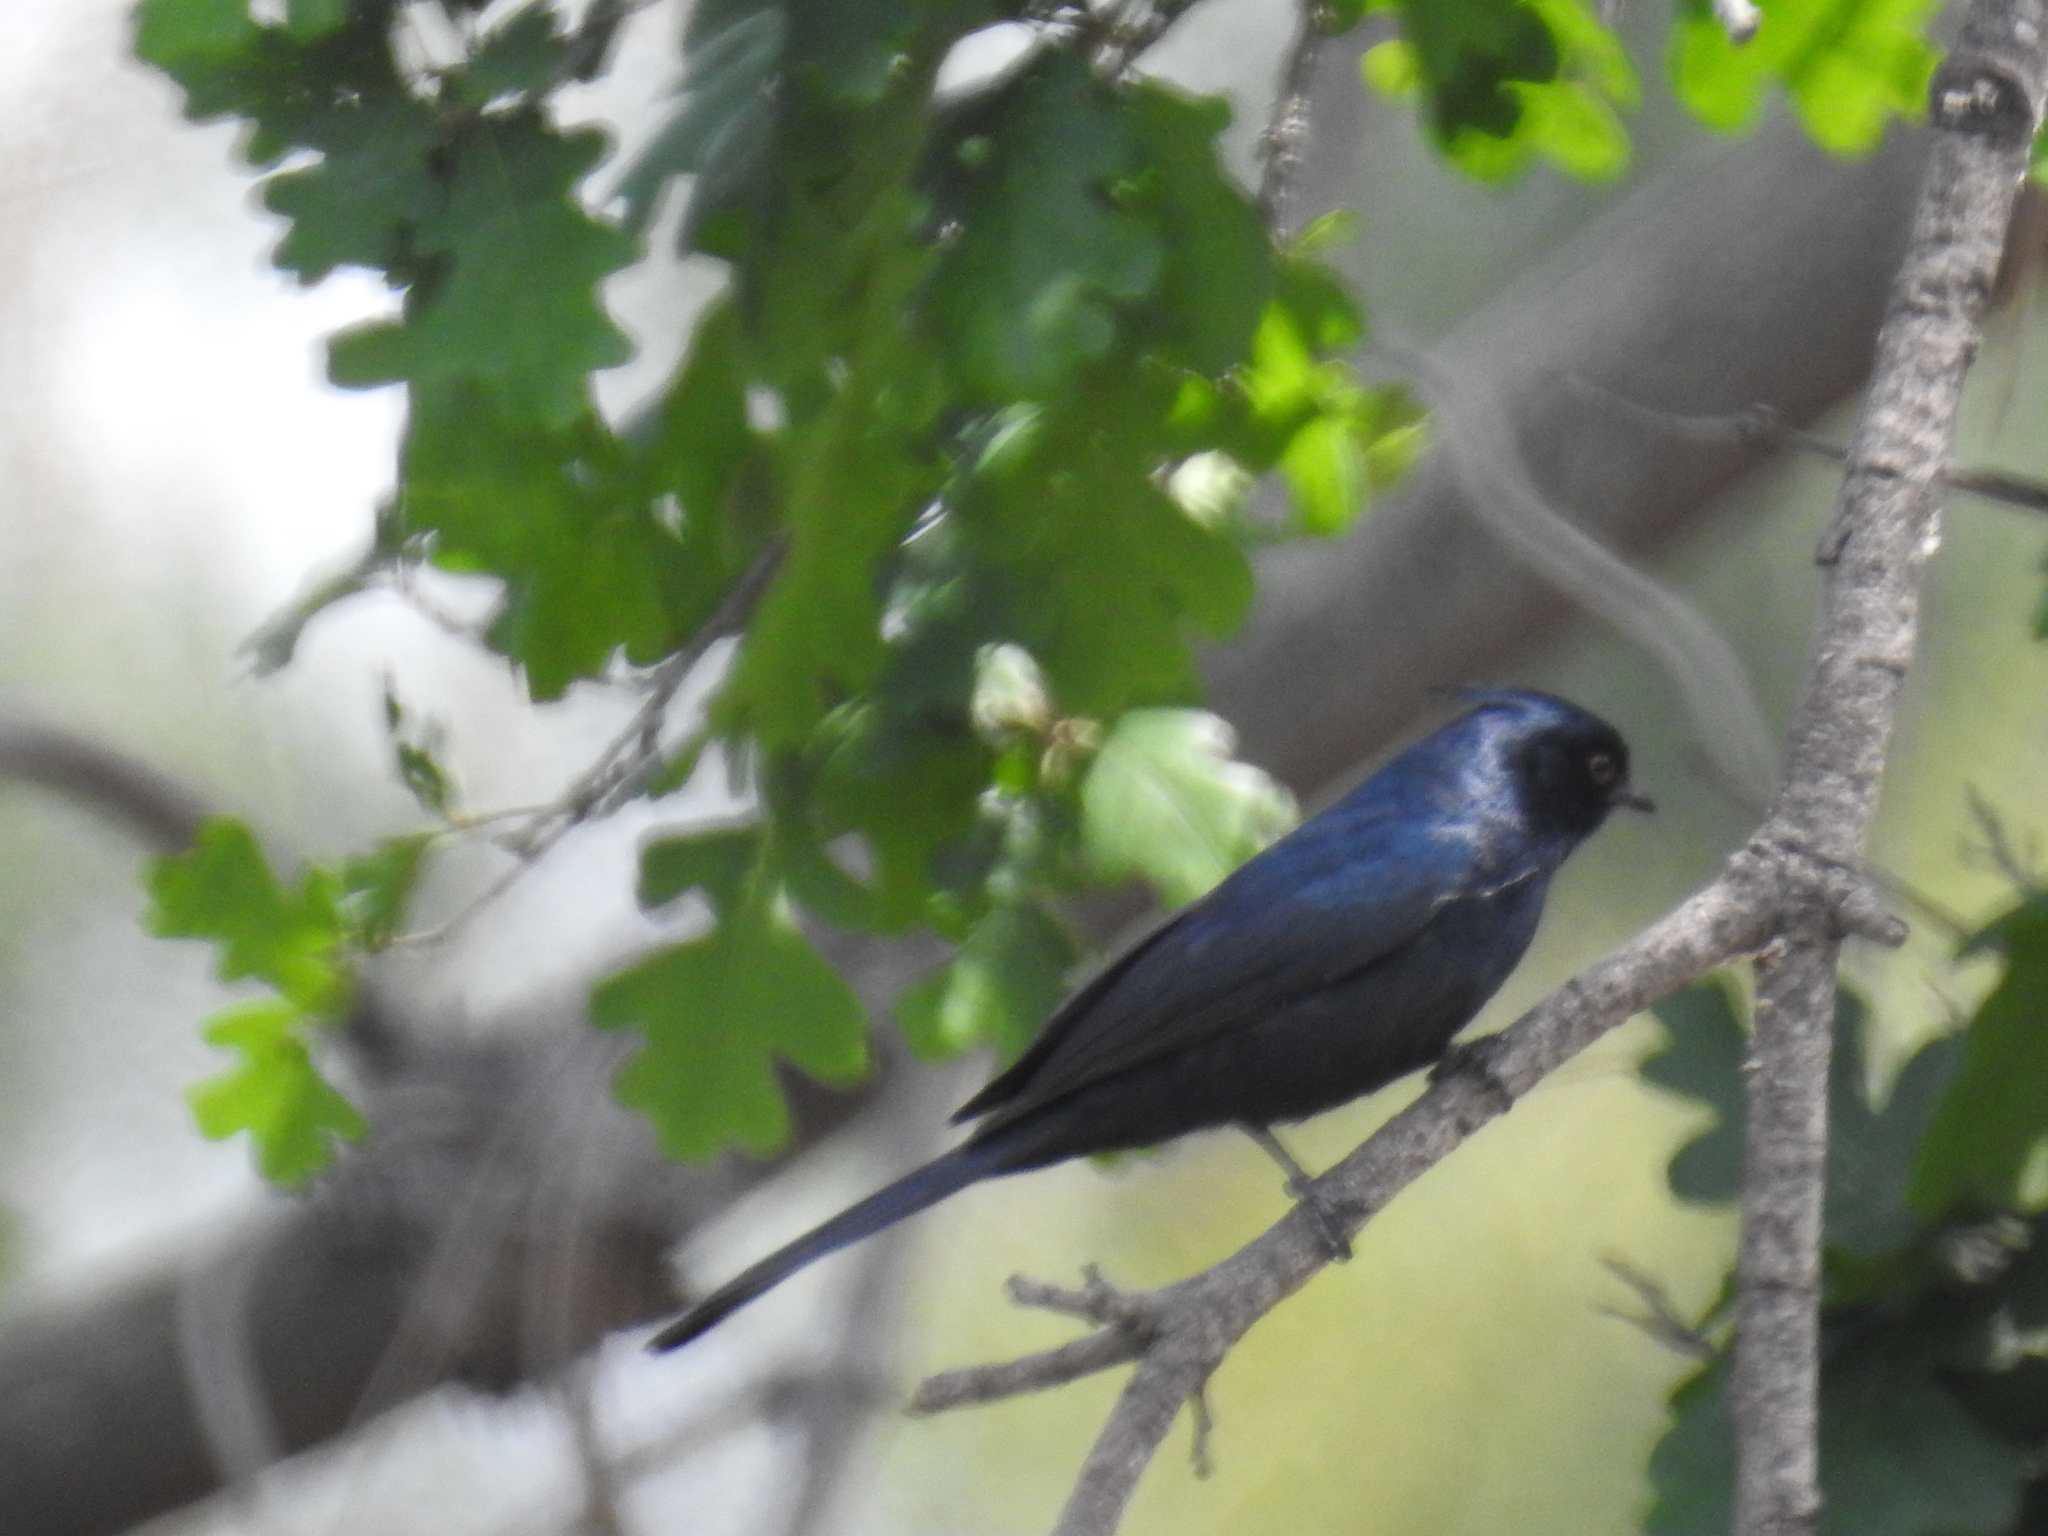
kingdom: Animalia
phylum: Chordata
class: Aves
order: Passeriformes
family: Ptilogonatidae
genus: Phainopepla
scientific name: Phainopepla nitens
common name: Phainopepla
